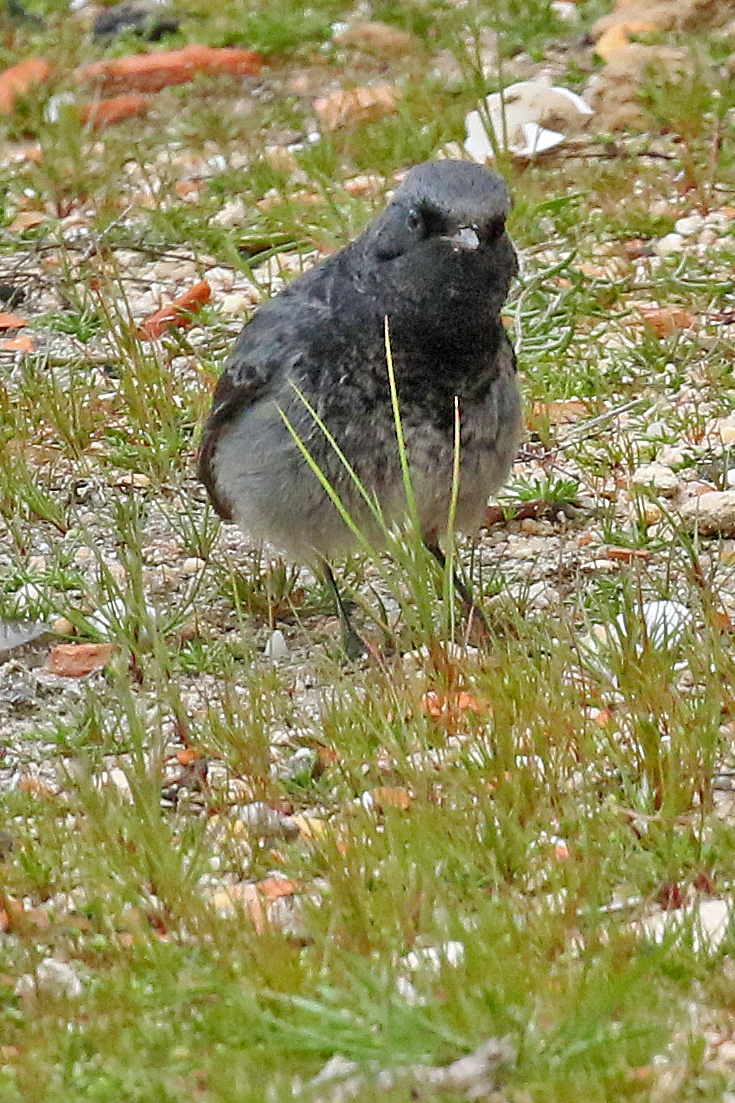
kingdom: Animalia
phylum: Chordata
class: Aves
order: Passeriformes
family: Muscicapidae
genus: Phoenicurus
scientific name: Phoenicurus ochruros
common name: Black redstart
